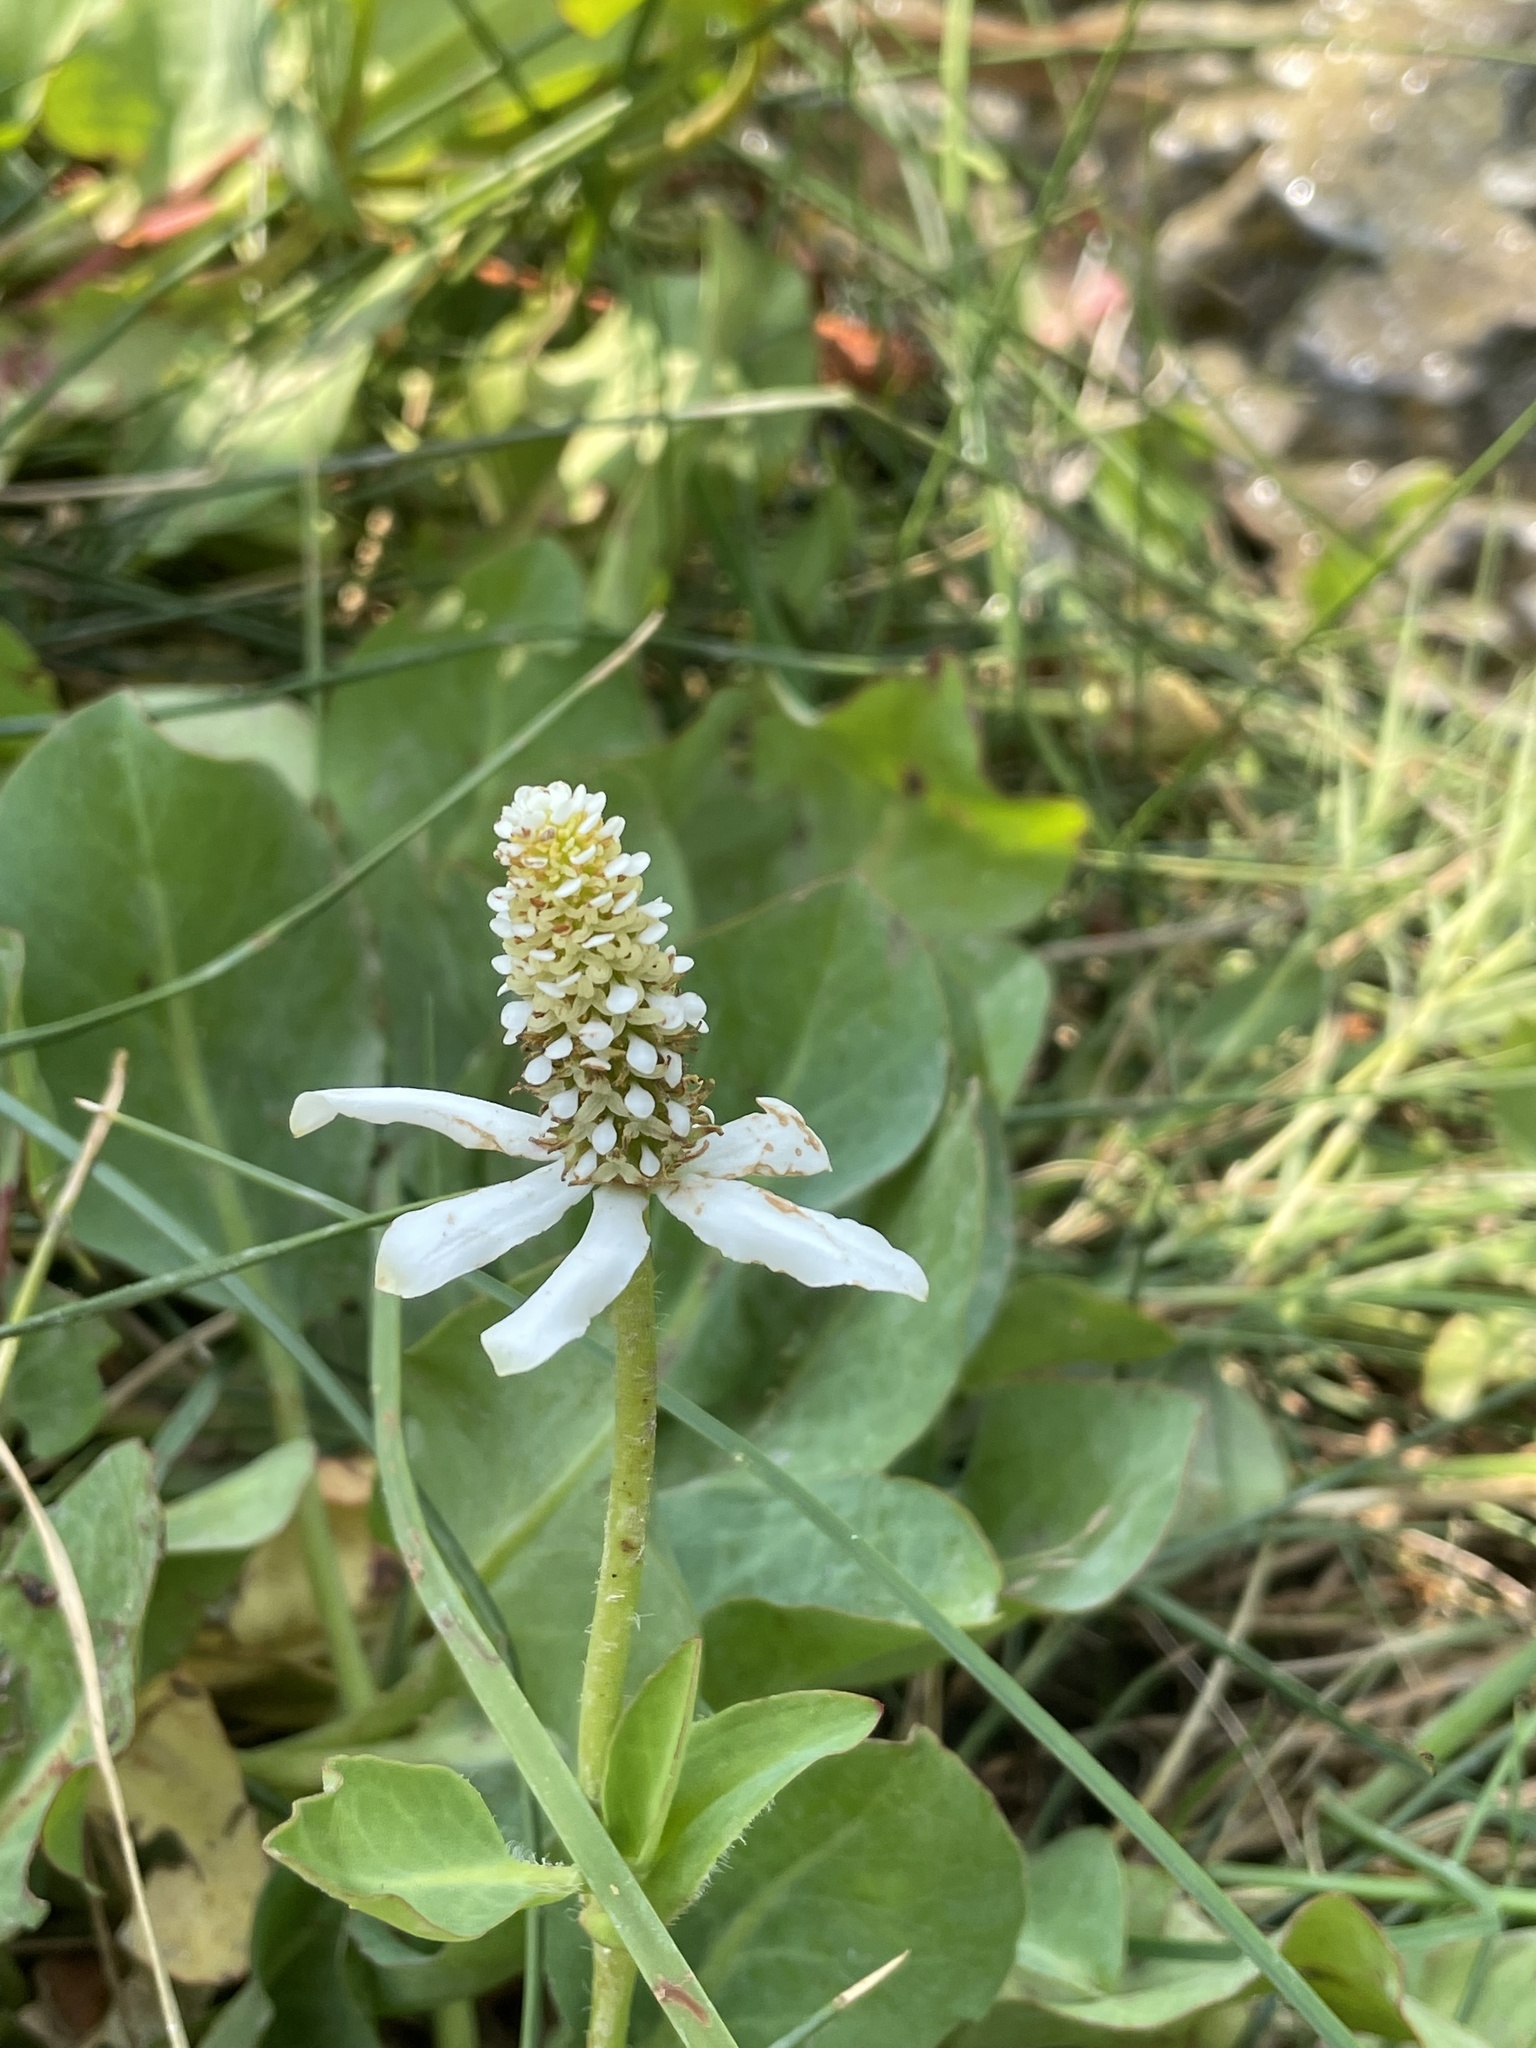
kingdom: Plantae
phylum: Tracheophyta
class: Magnoliopsida
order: Piperales
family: Saururaceae
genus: Anemopsis
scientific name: Anemopsis californica
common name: Apache-beads
